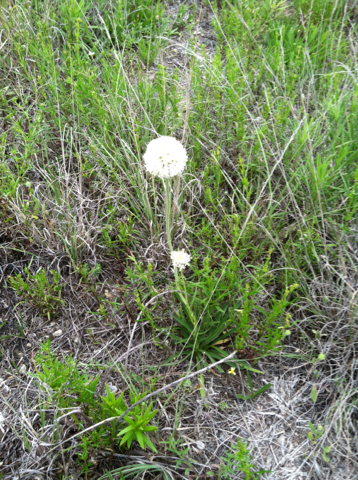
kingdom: Plantae
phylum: Tracheophyta
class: Magnoliopsida
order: Asterales
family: Asteraceae
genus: Marshallia
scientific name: Marshallia caespitosa
